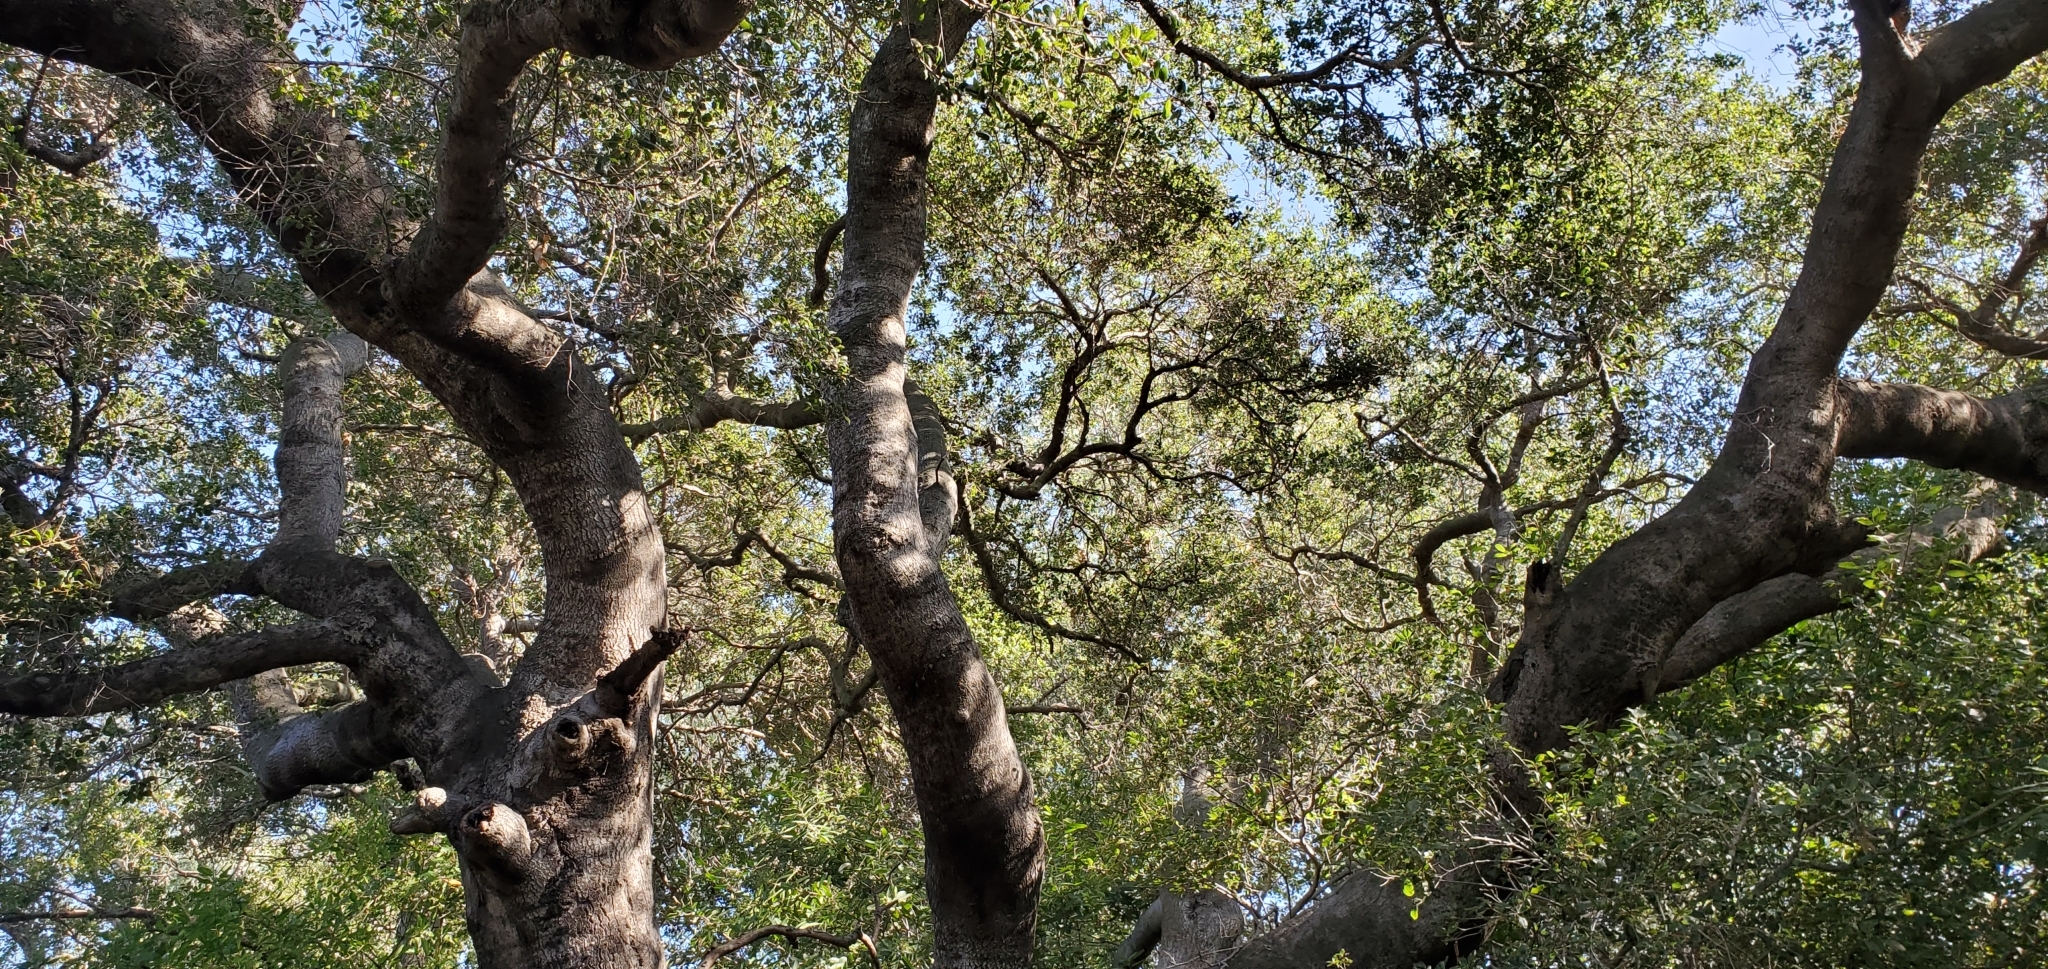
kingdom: Plantae
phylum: Tracheophyta
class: Magnoliopsida
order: Fagales
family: Fagaceae
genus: Quercus
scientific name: Quercus agrifolia
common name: California live oak
